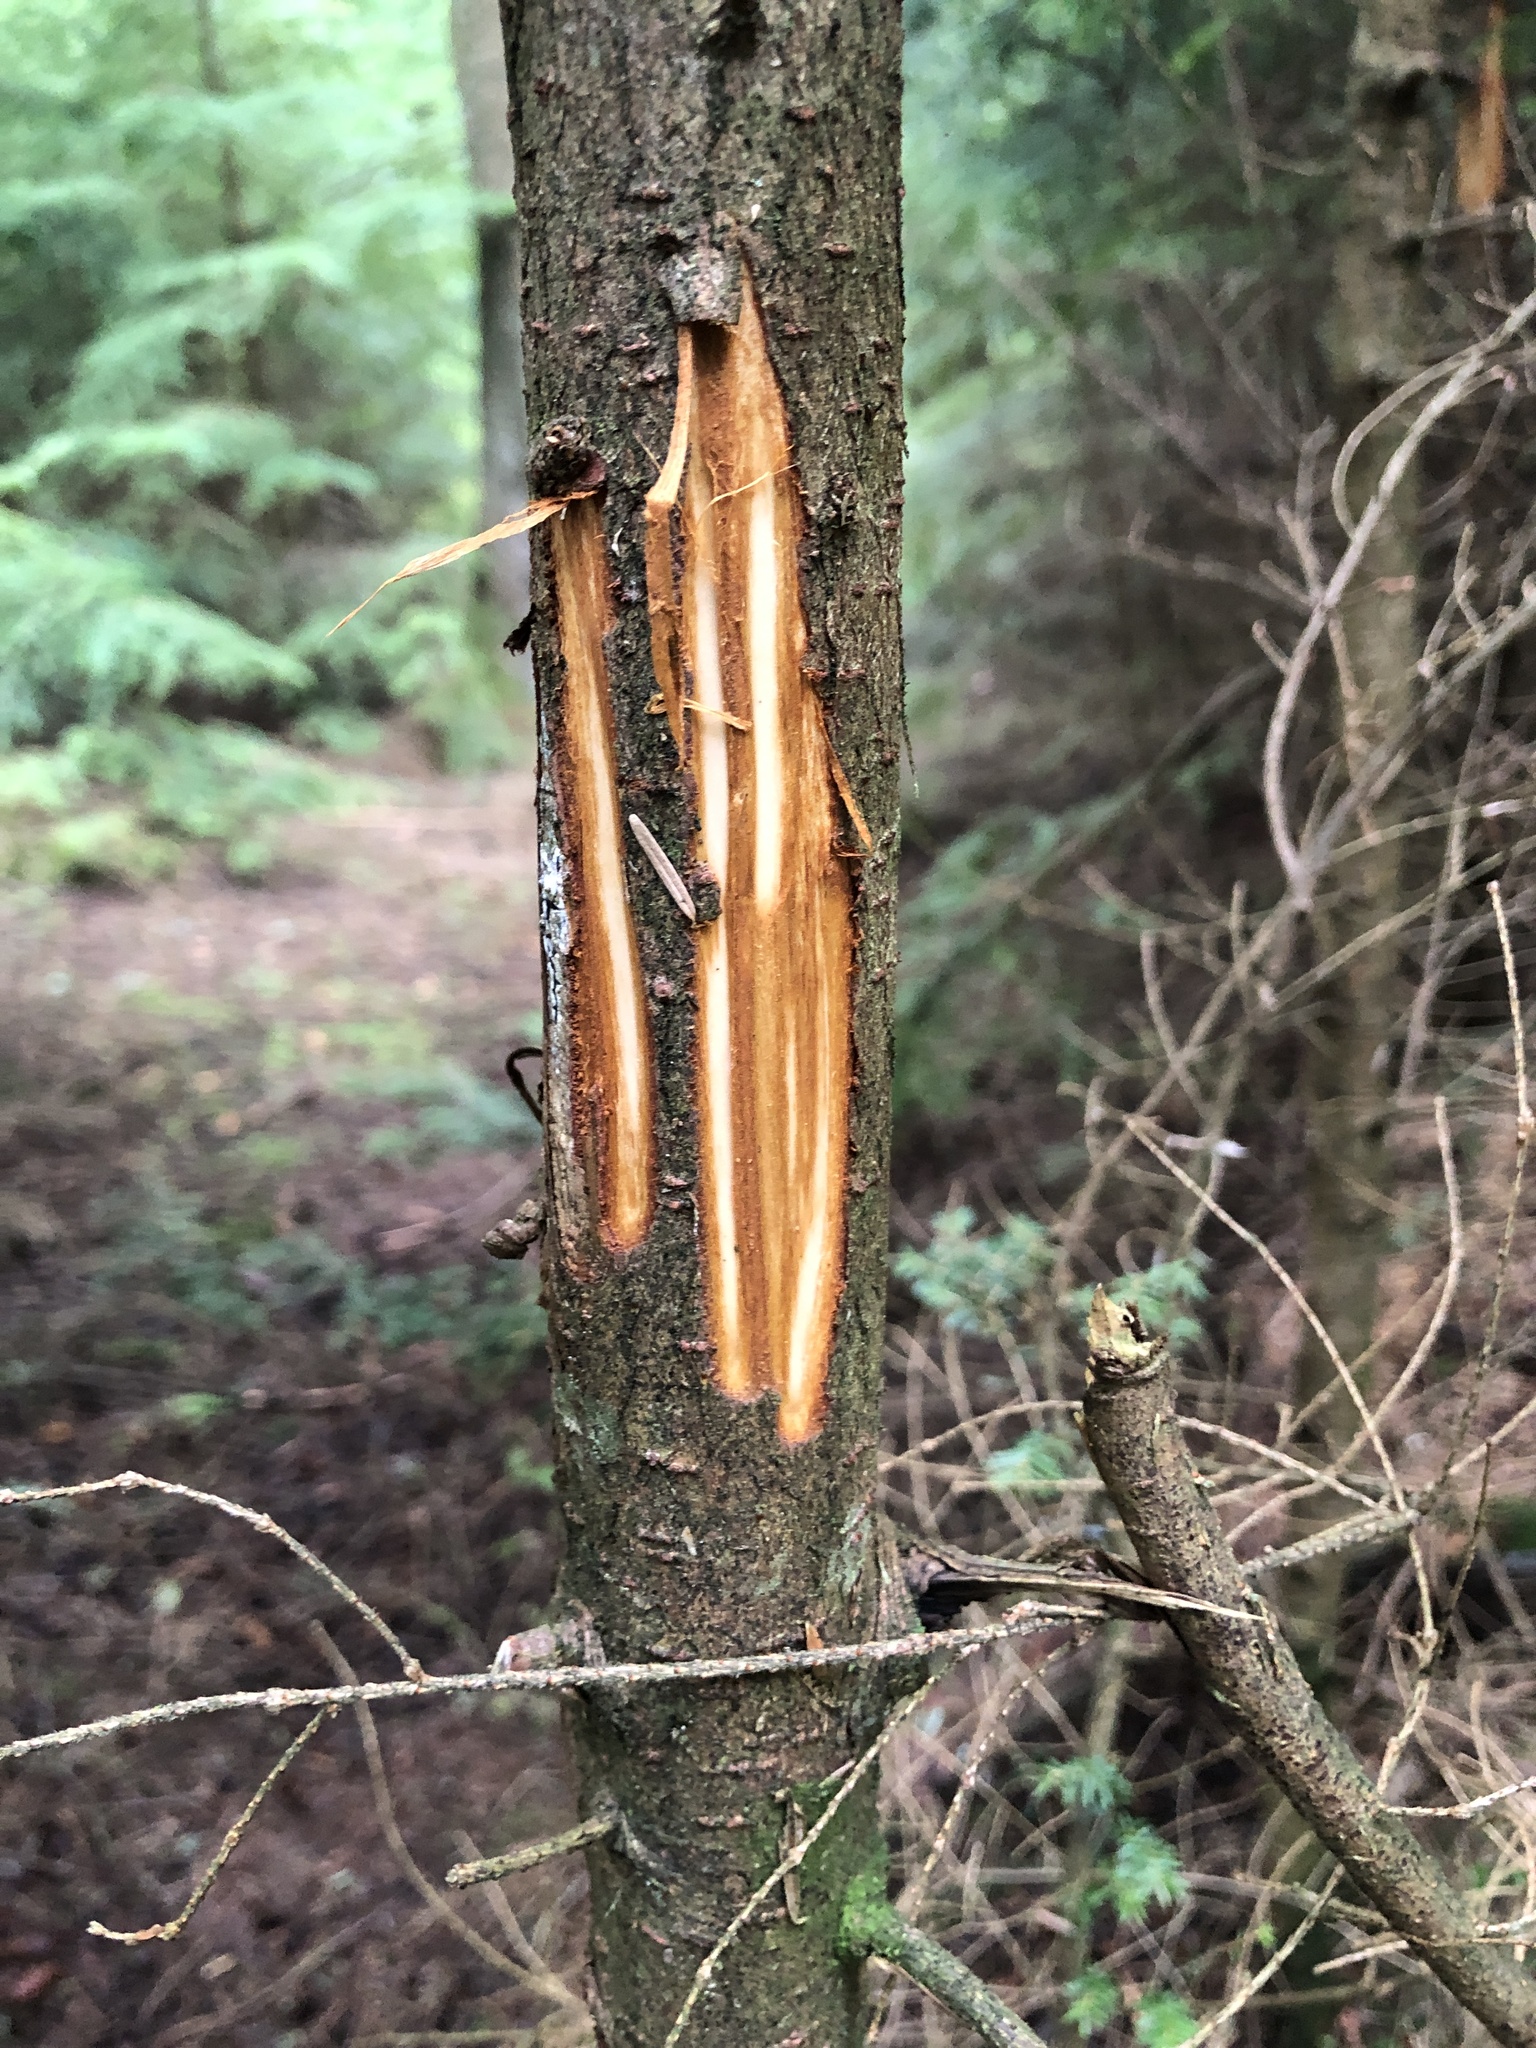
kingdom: Animalia
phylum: Chordata
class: Mammalia
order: Artiodactyla
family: Cervidae
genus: Alces
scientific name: Alces alces
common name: Moose
